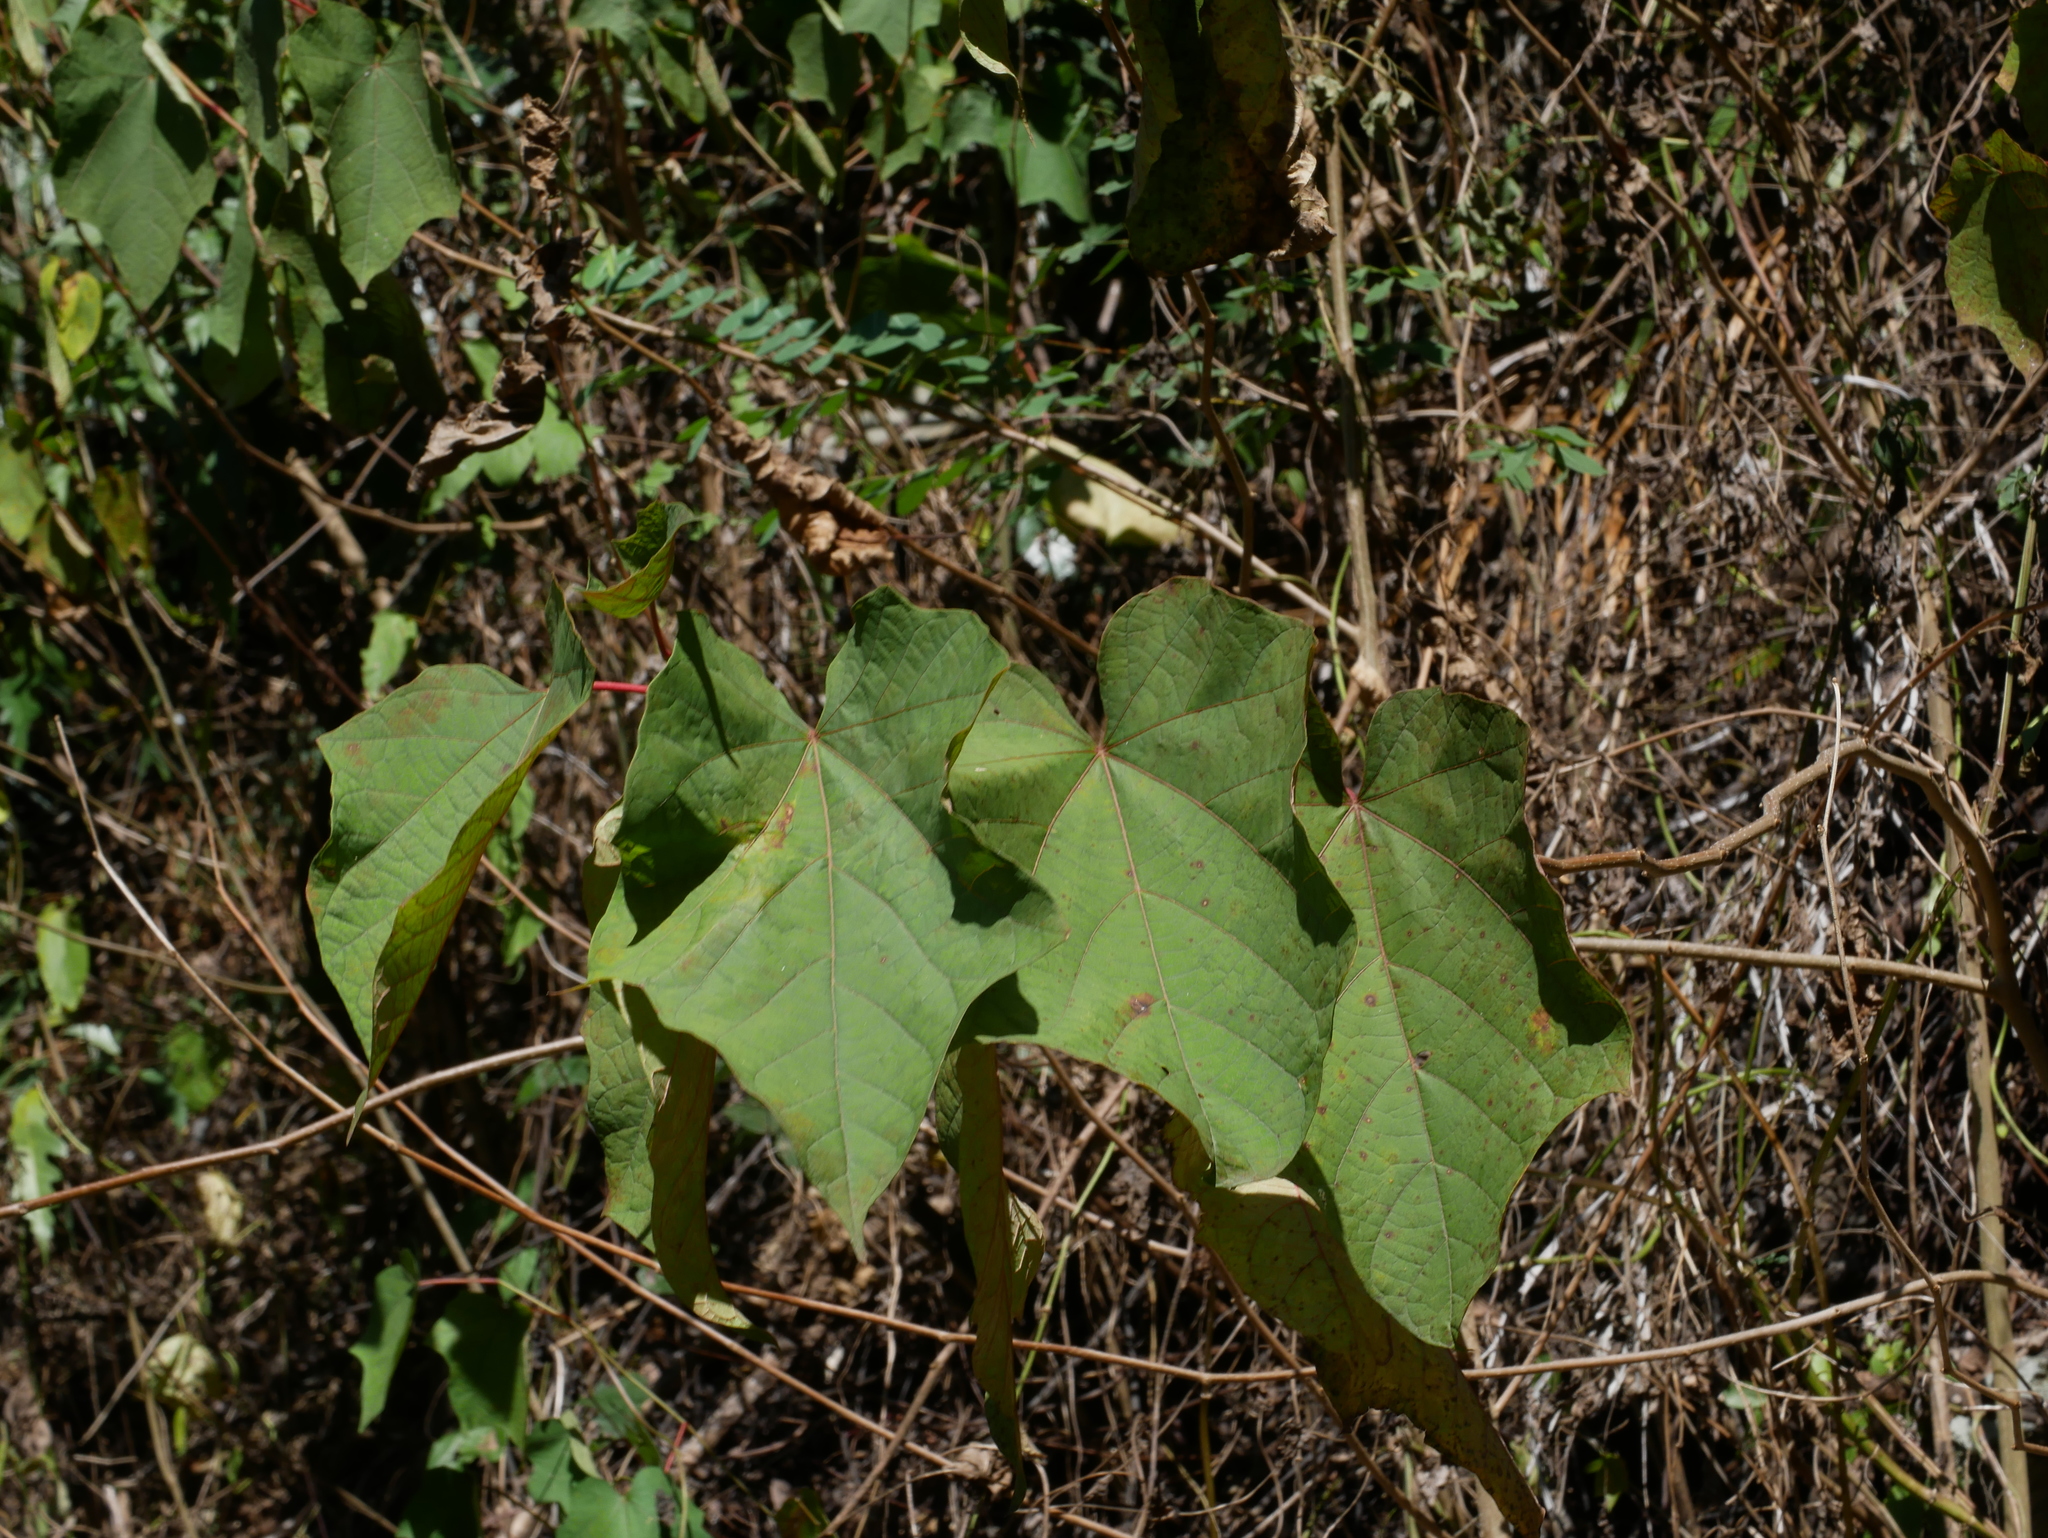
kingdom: Plantae
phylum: Tracheophyta
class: Magnoliopsida
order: Cornales
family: Cornaceae
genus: Alangium
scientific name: Alangium chinense
